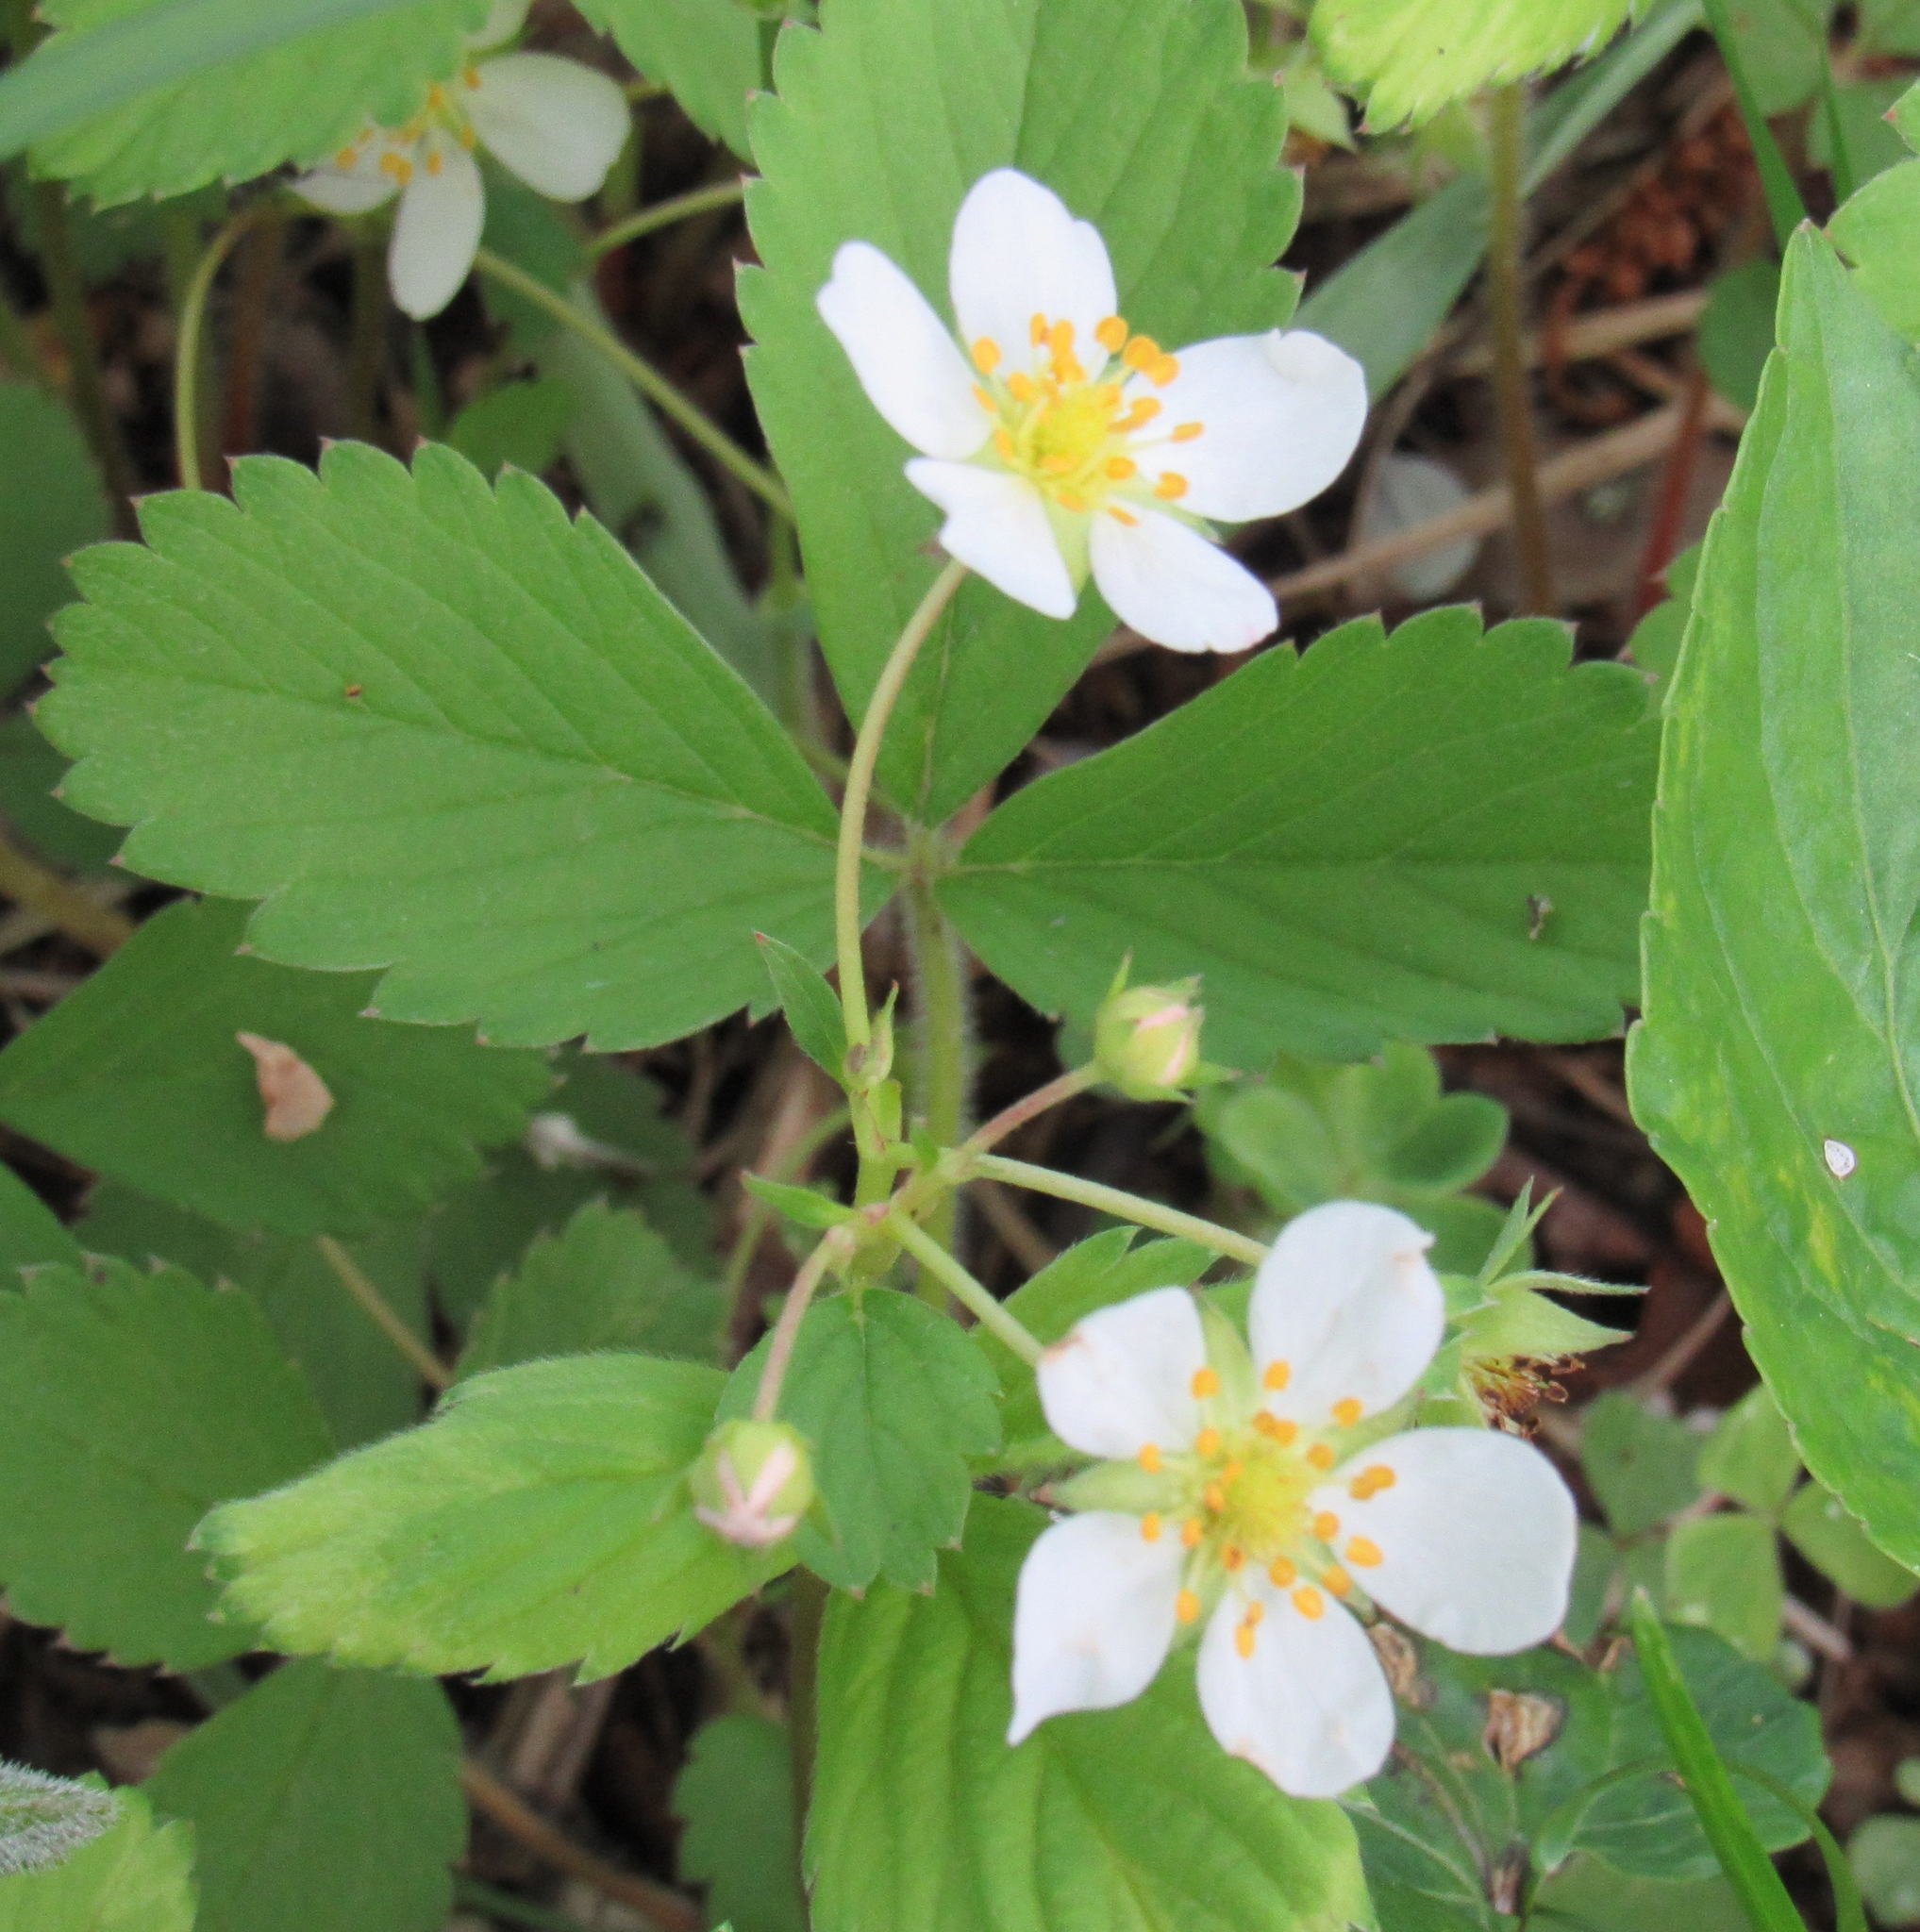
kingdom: Plantae
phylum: Tracheophyta
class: Magnoliopsida
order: Rosales
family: Rosaceae
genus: Fragaria
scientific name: Fragaria virginiana
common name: Thickleaved wild strawberry
